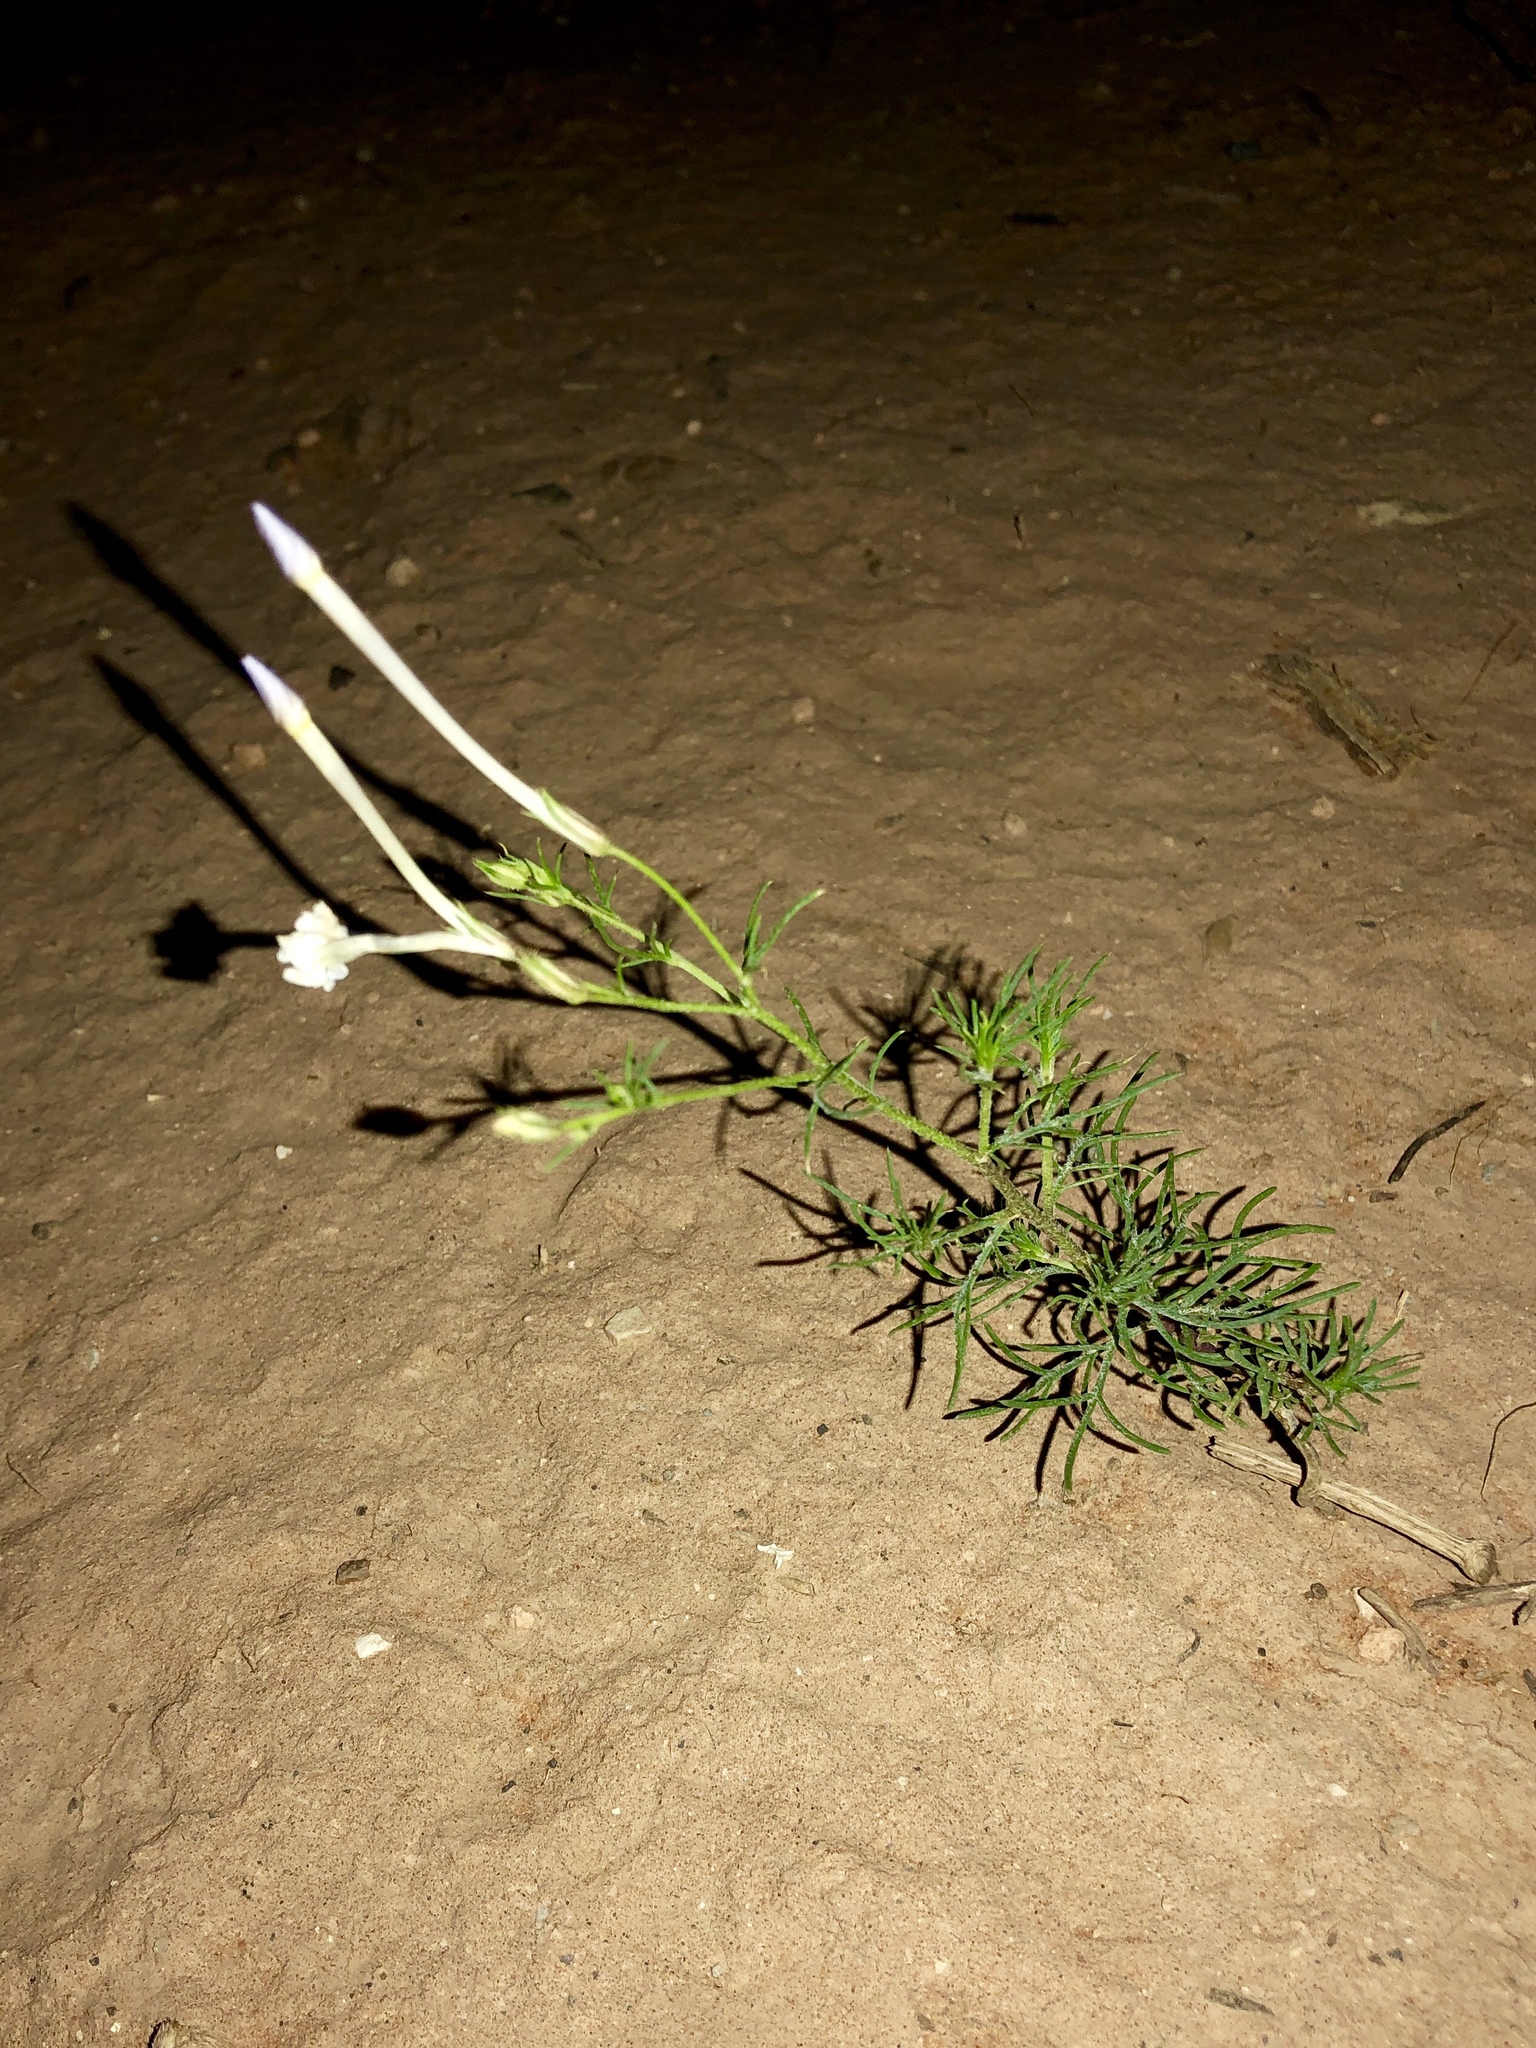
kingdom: Plantae
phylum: Tracheophyta
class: Magnoliopsida
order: Ericales
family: Polemoniaceae
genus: Ipomopsis
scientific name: Ipomopsis longiflora
